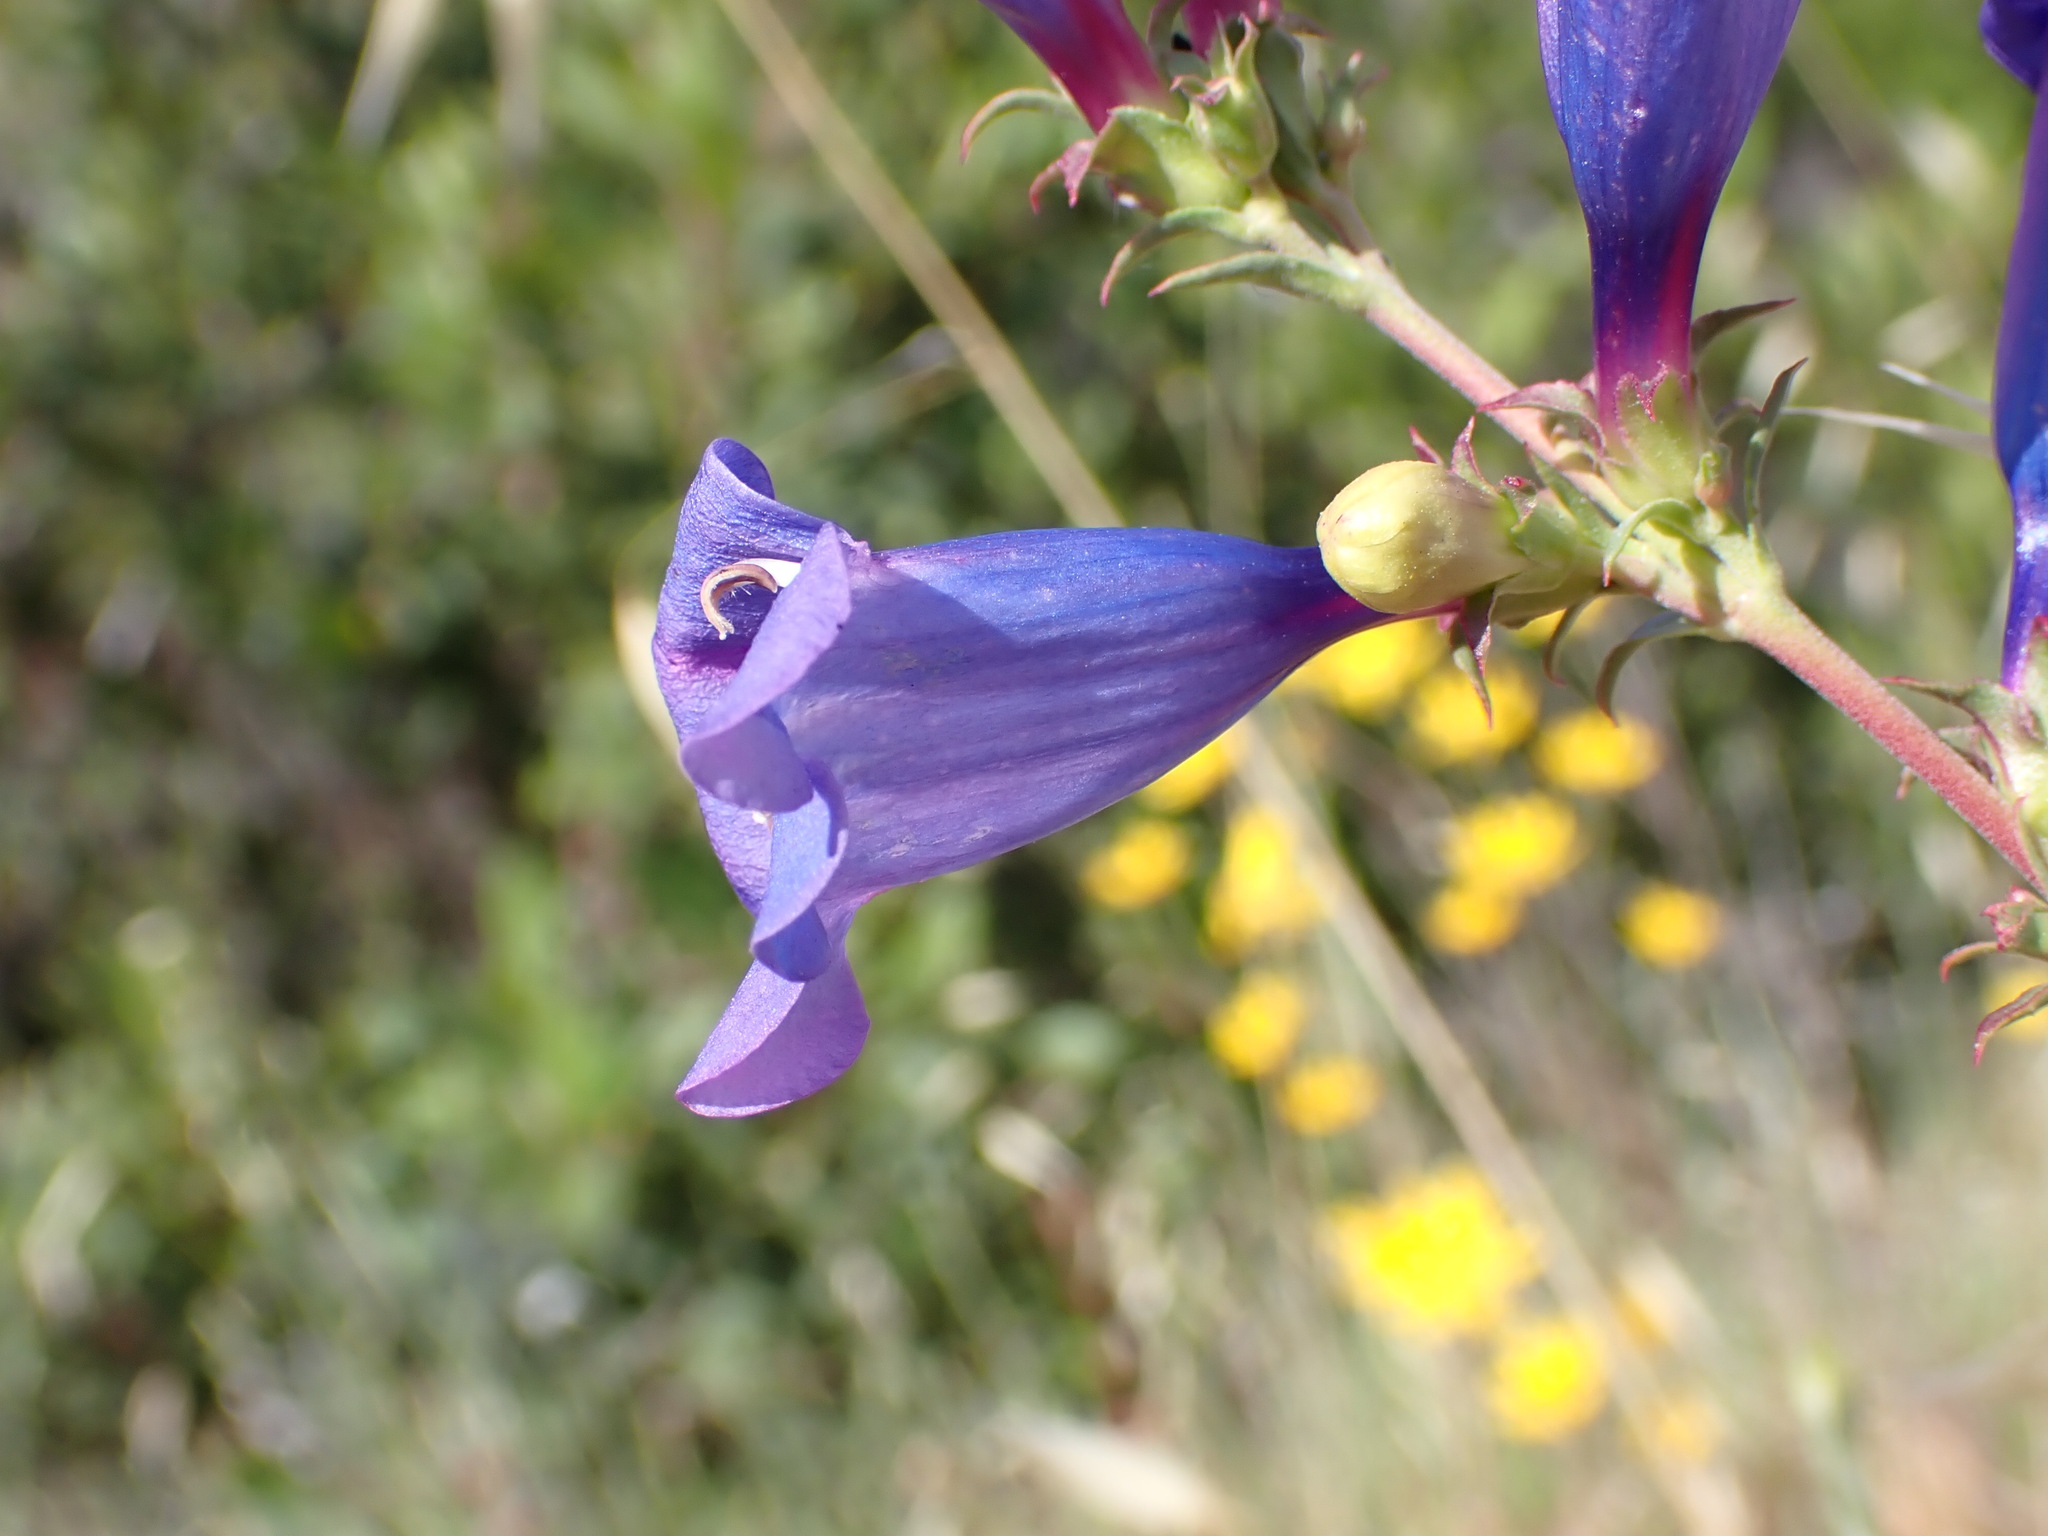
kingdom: Plantae
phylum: Tracheophyta
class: Magnoliopsida
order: Lamiales
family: Plantaginaceae
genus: Penstemon
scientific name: Penstemon heterophyllus
